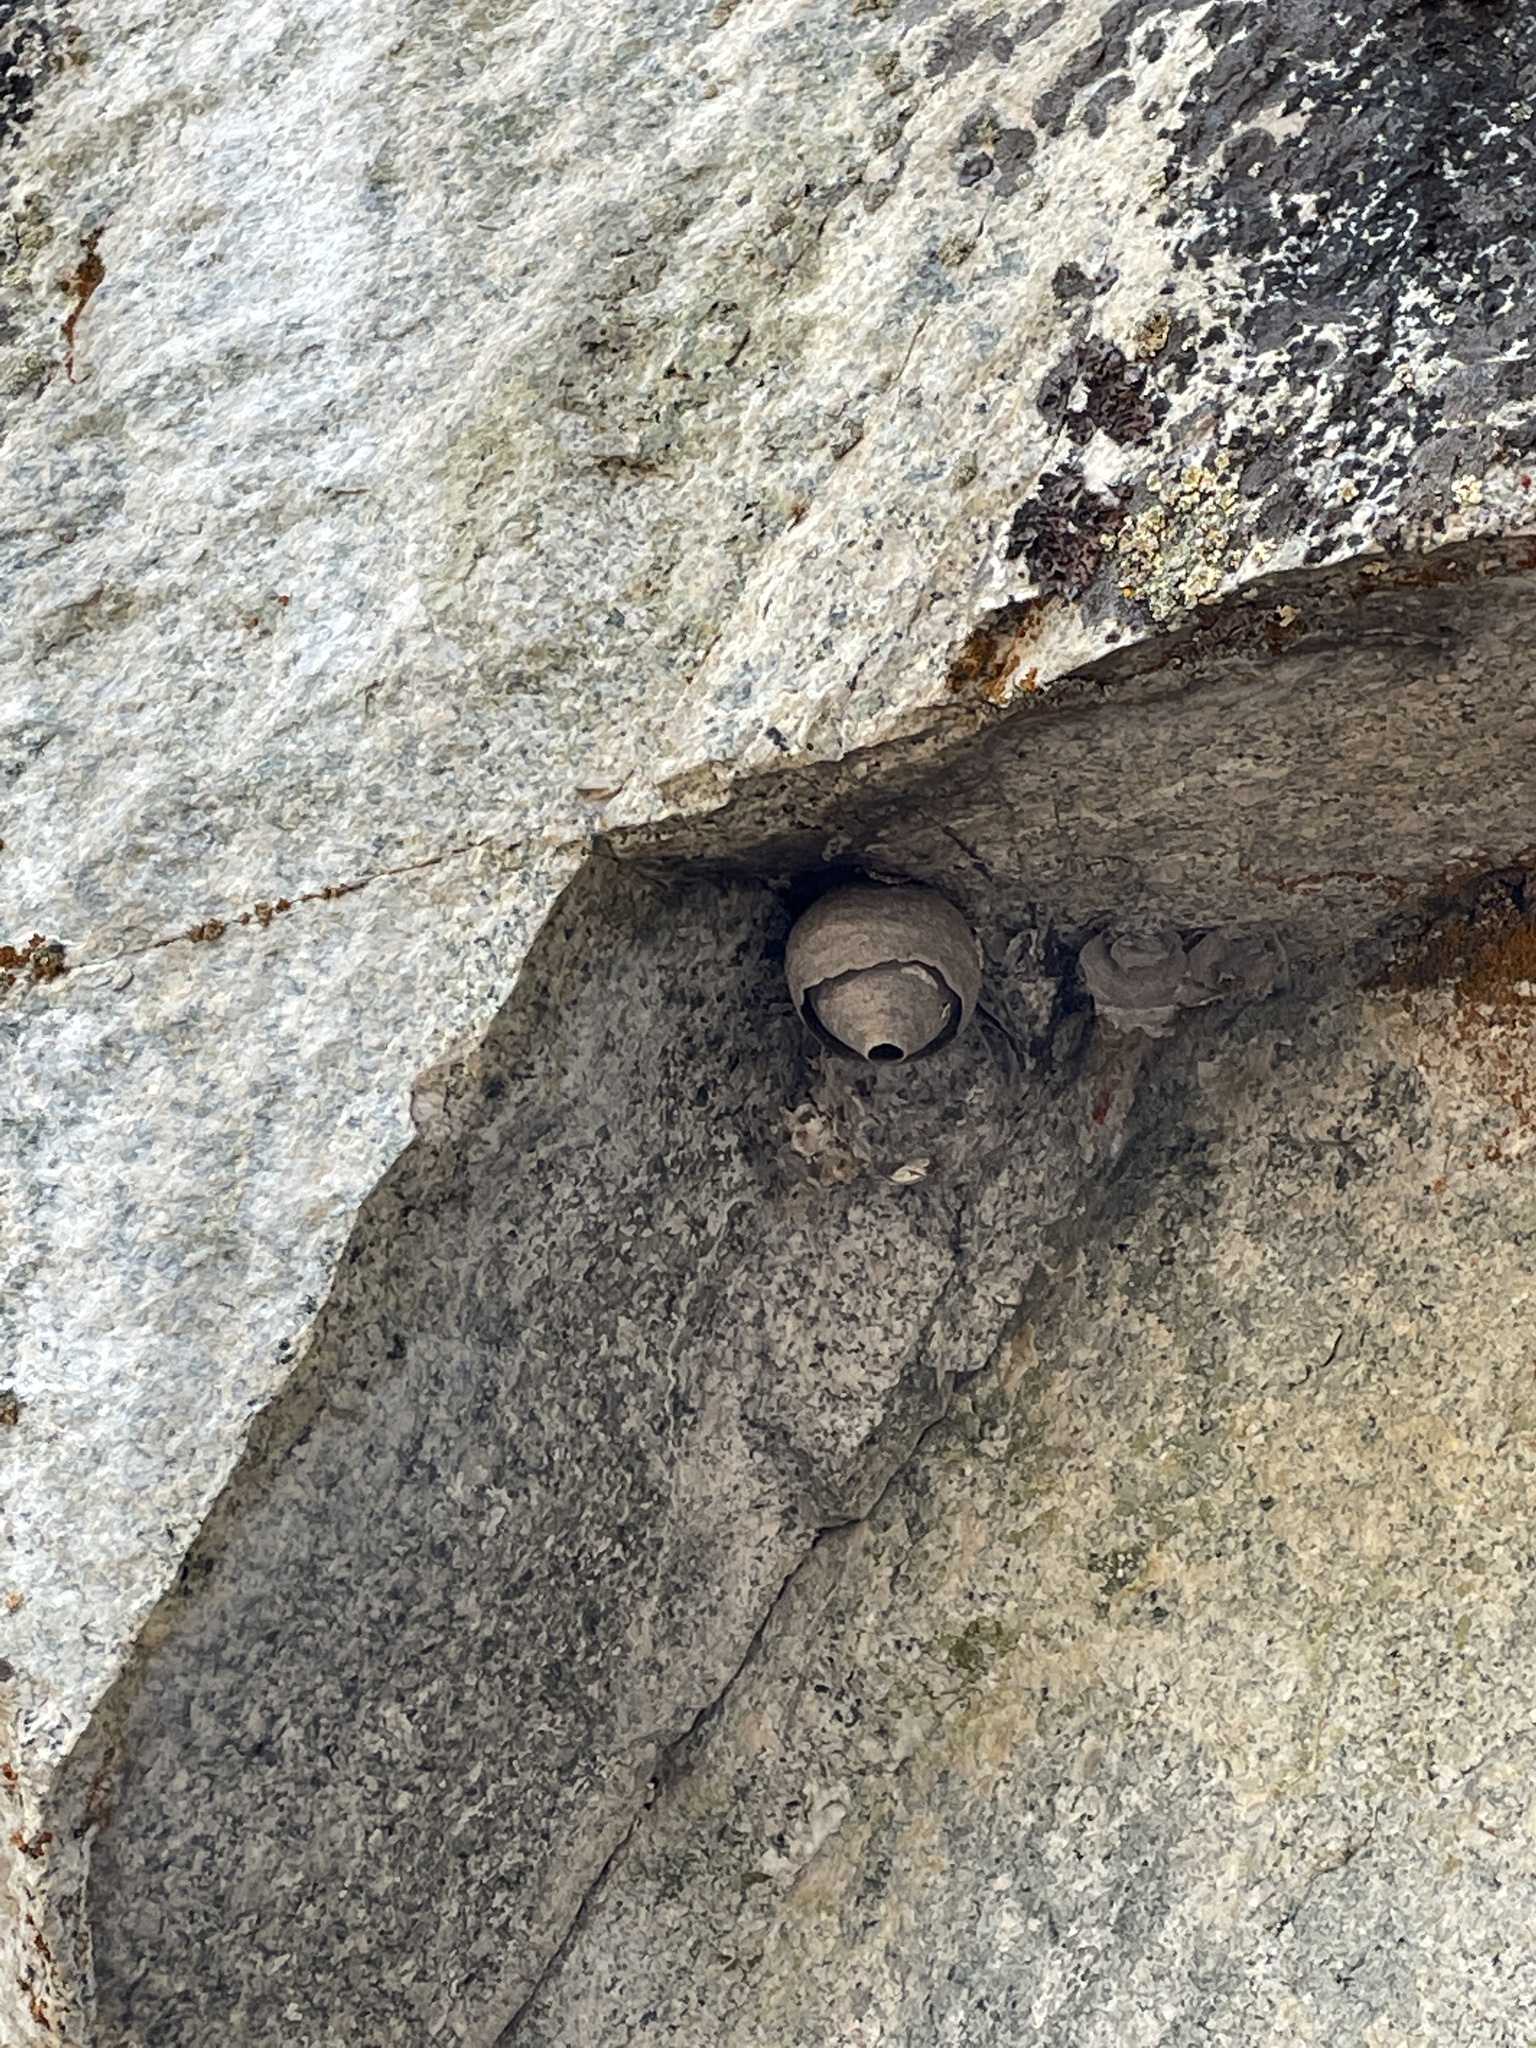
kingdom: Animalia
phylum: Arthropoda
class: Insecta
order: Hymenoptera
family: Vespidae
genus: Dolichovespula
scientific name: Dolichovespula
